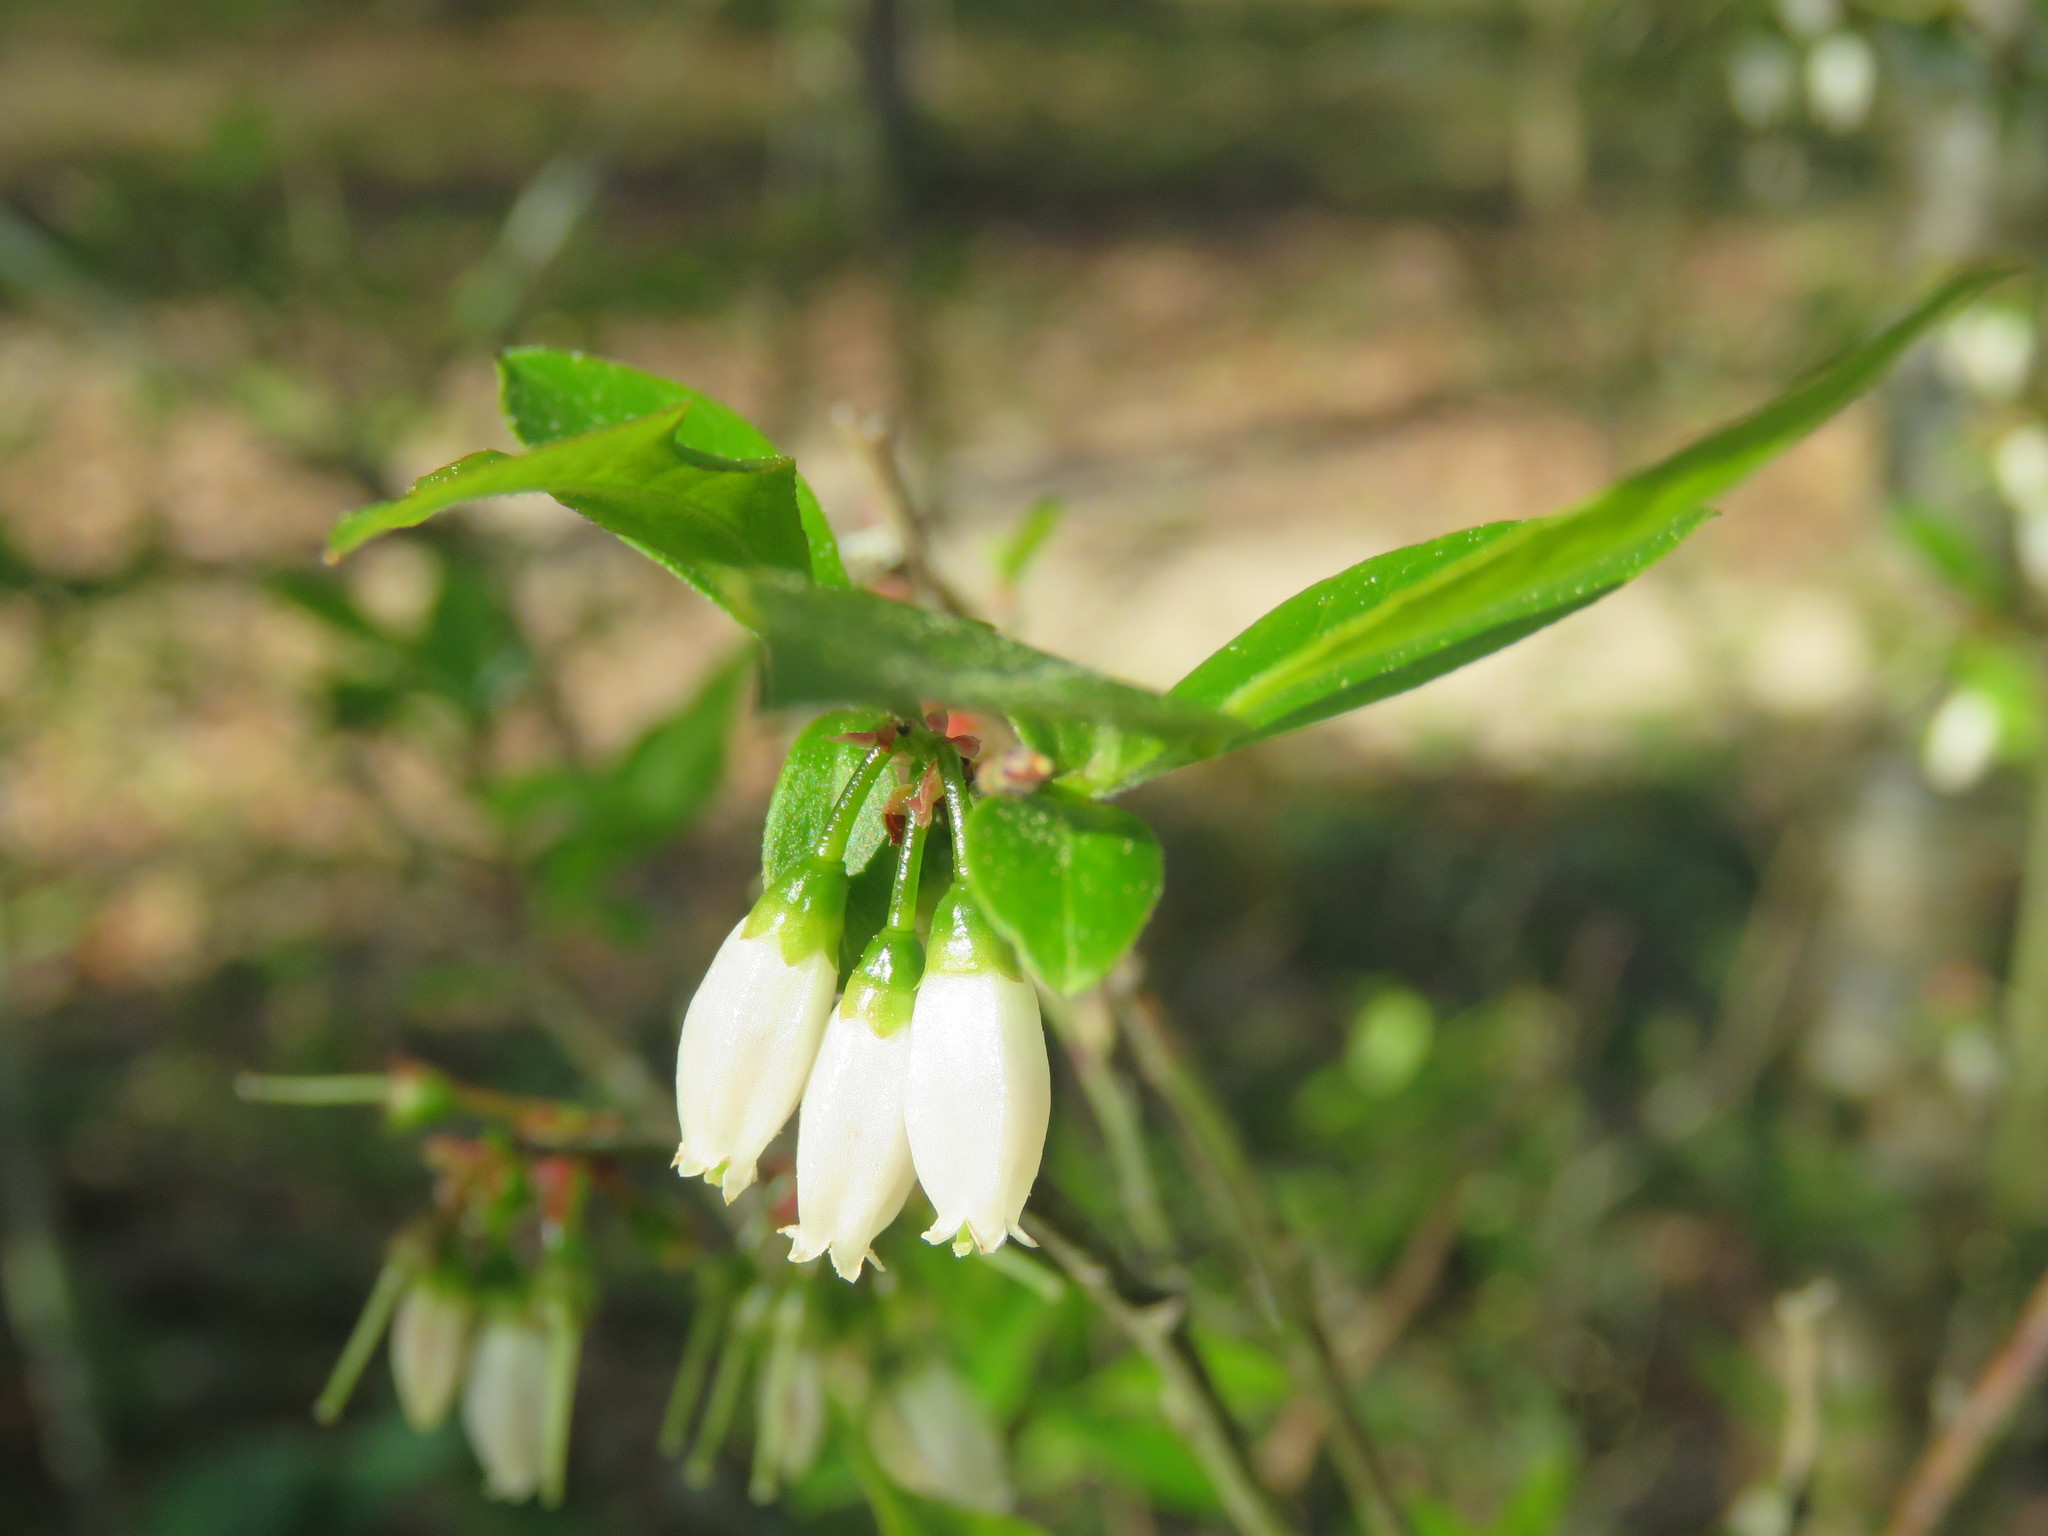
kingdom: Plantae
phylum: Tracheophyta
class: Magnoliopsida
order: Ericales
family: Ericaceae
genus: Vaccinium
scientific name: Vaccinium corymbosum
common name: Blueberry
